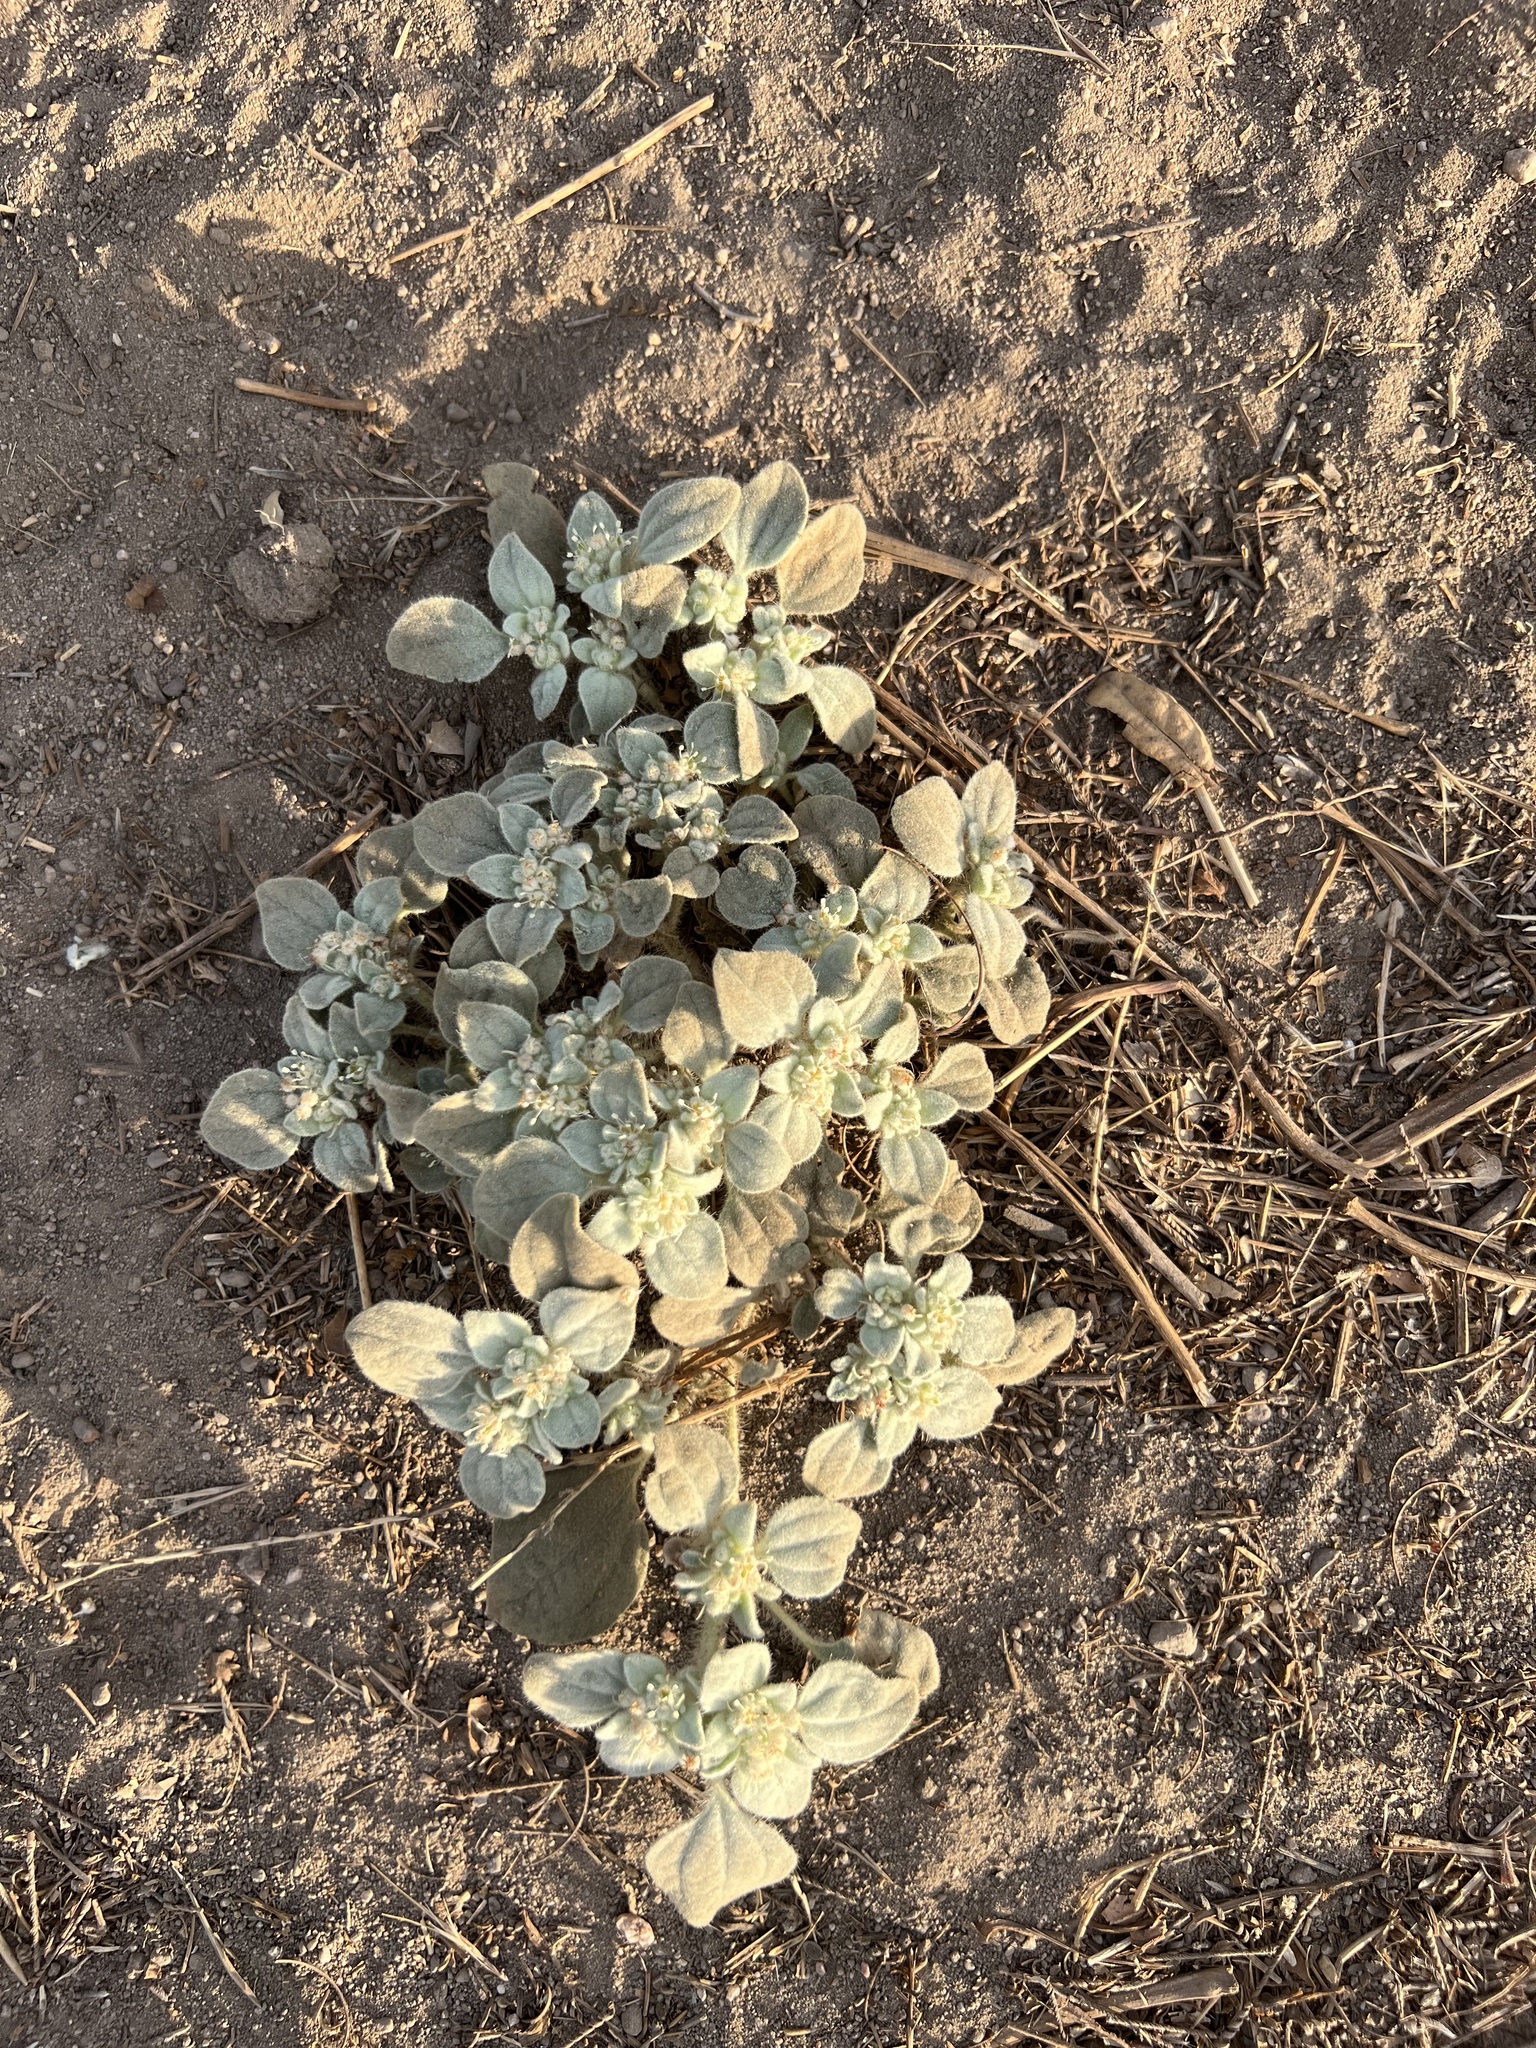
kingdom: Plantae
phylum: Tracheophyta
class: Magnoliopsida
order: Malpighiales
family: Euphorbiaceae
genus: Croton
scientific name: Croton setiger
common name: Dove weed
